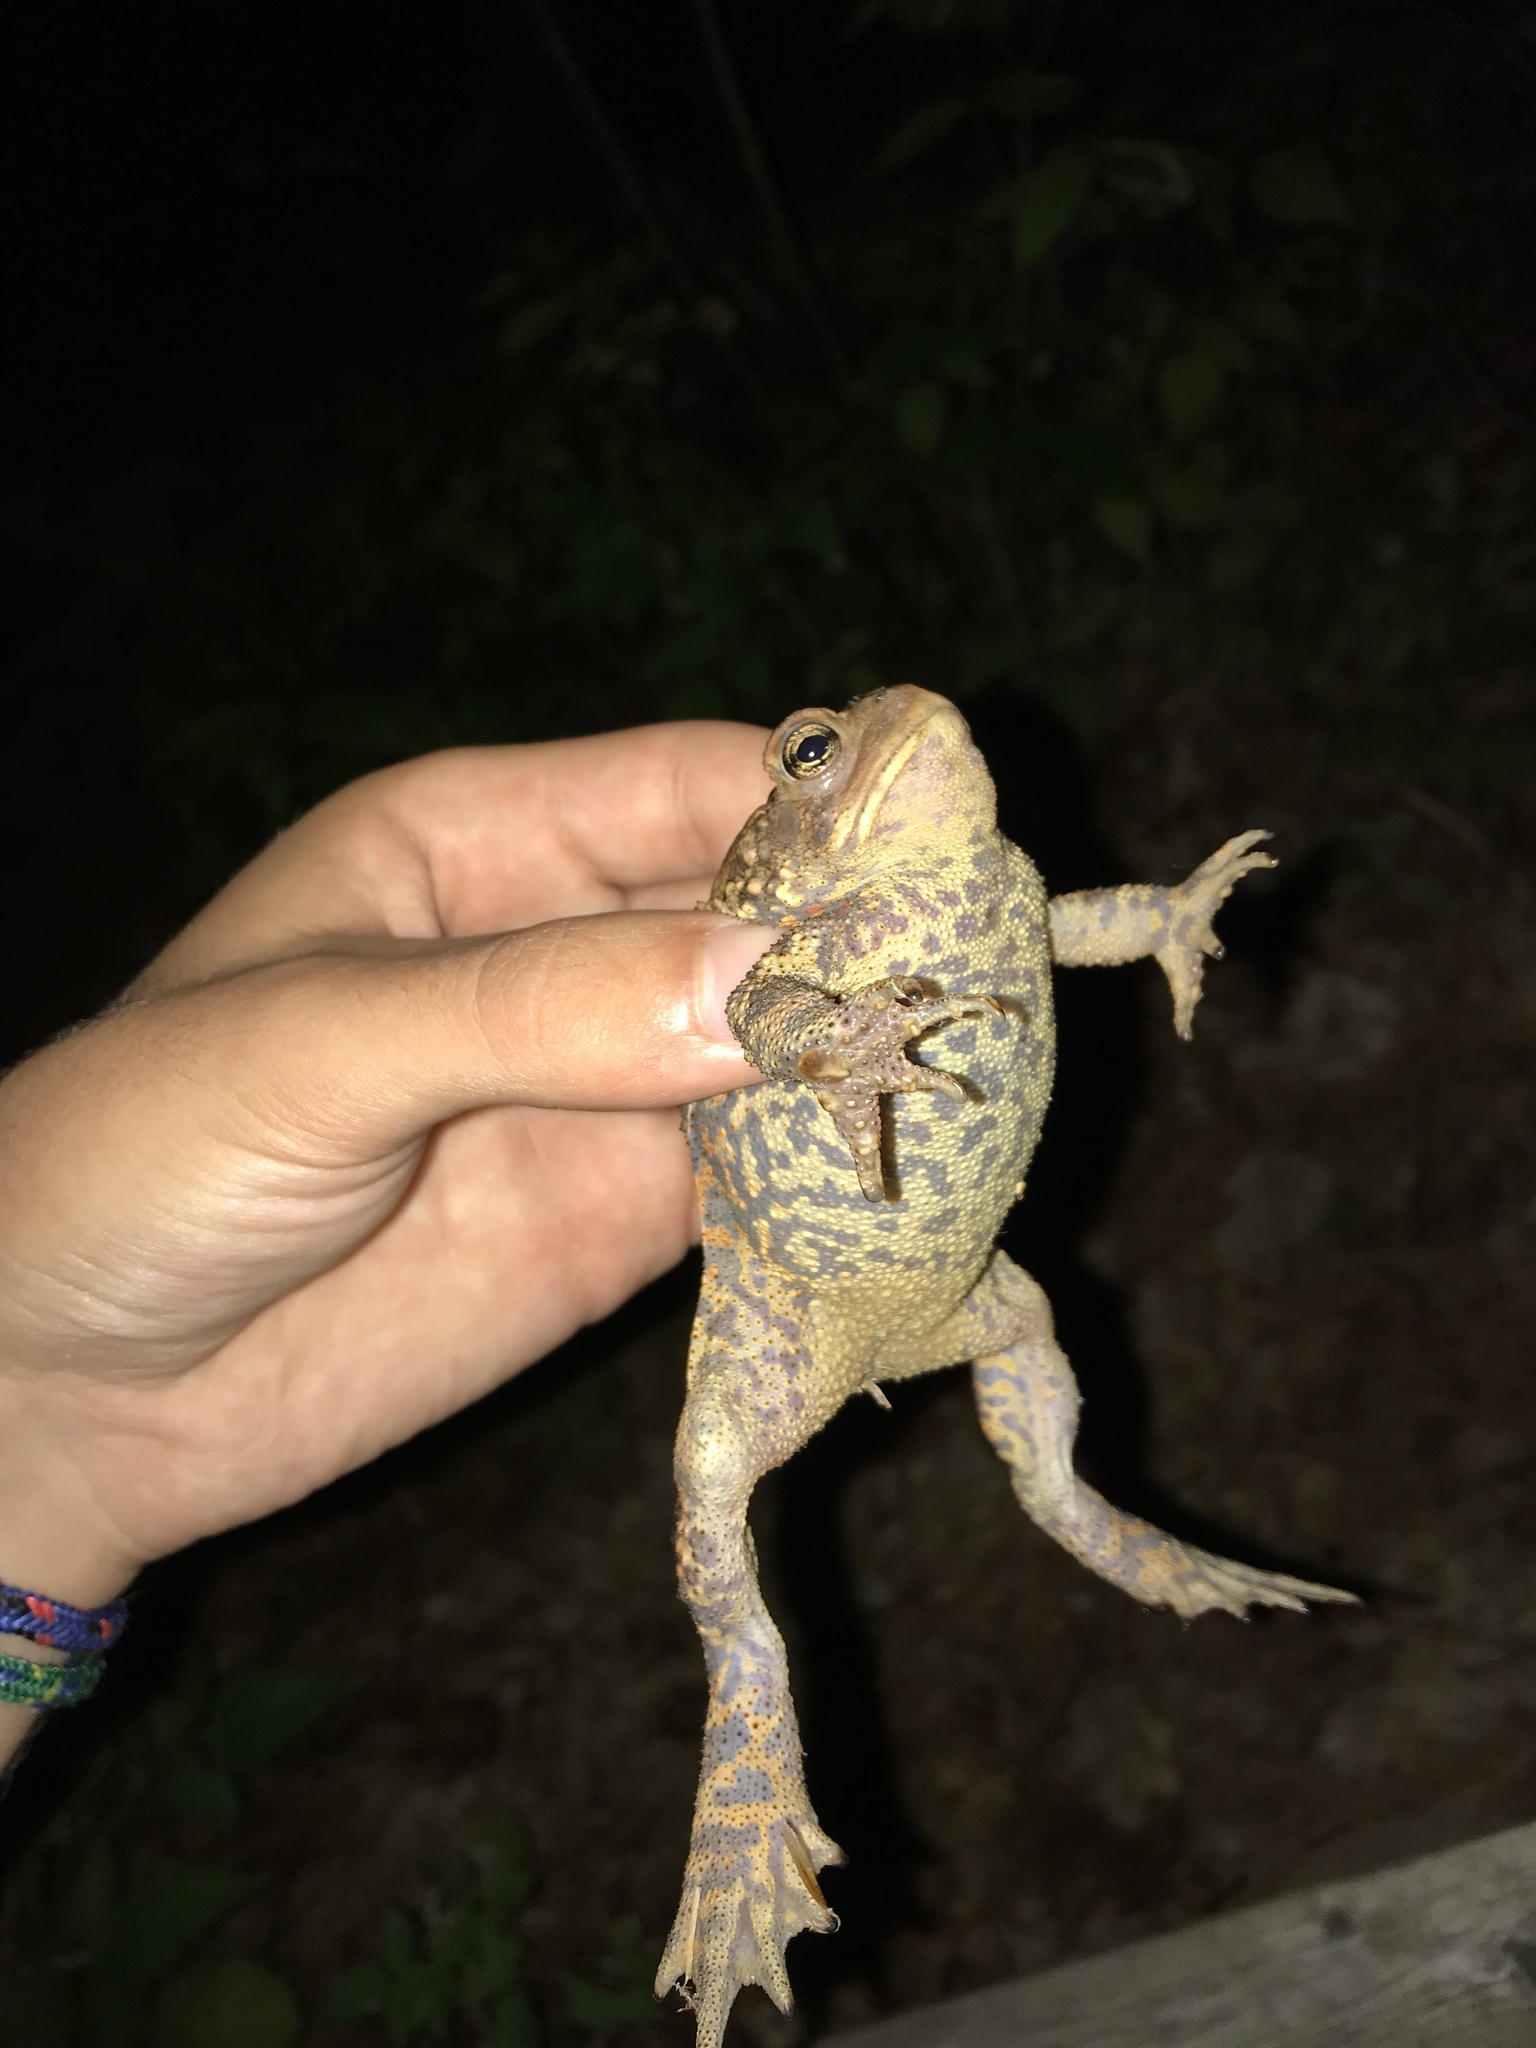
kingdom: Animalia
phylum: Chordata
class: Amphibia
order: Anura
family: Bufonidae
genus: Anaxyrus
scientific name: Anaxyrus americanus
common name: American toad
